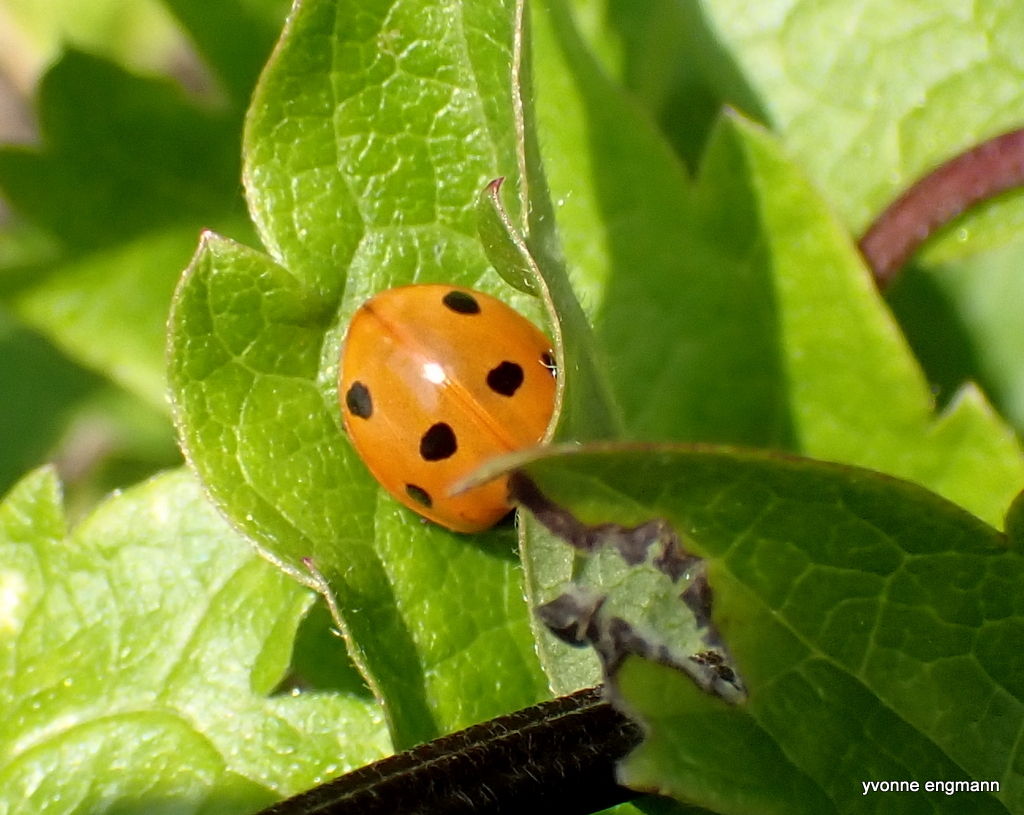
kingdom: Animalia
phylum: Arthropoda
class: Insecta
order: Coleoptera
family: Coccinellidae
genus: Coccinella
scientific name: Coccinella septempunctata
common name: Sevenspotted lady beetle
